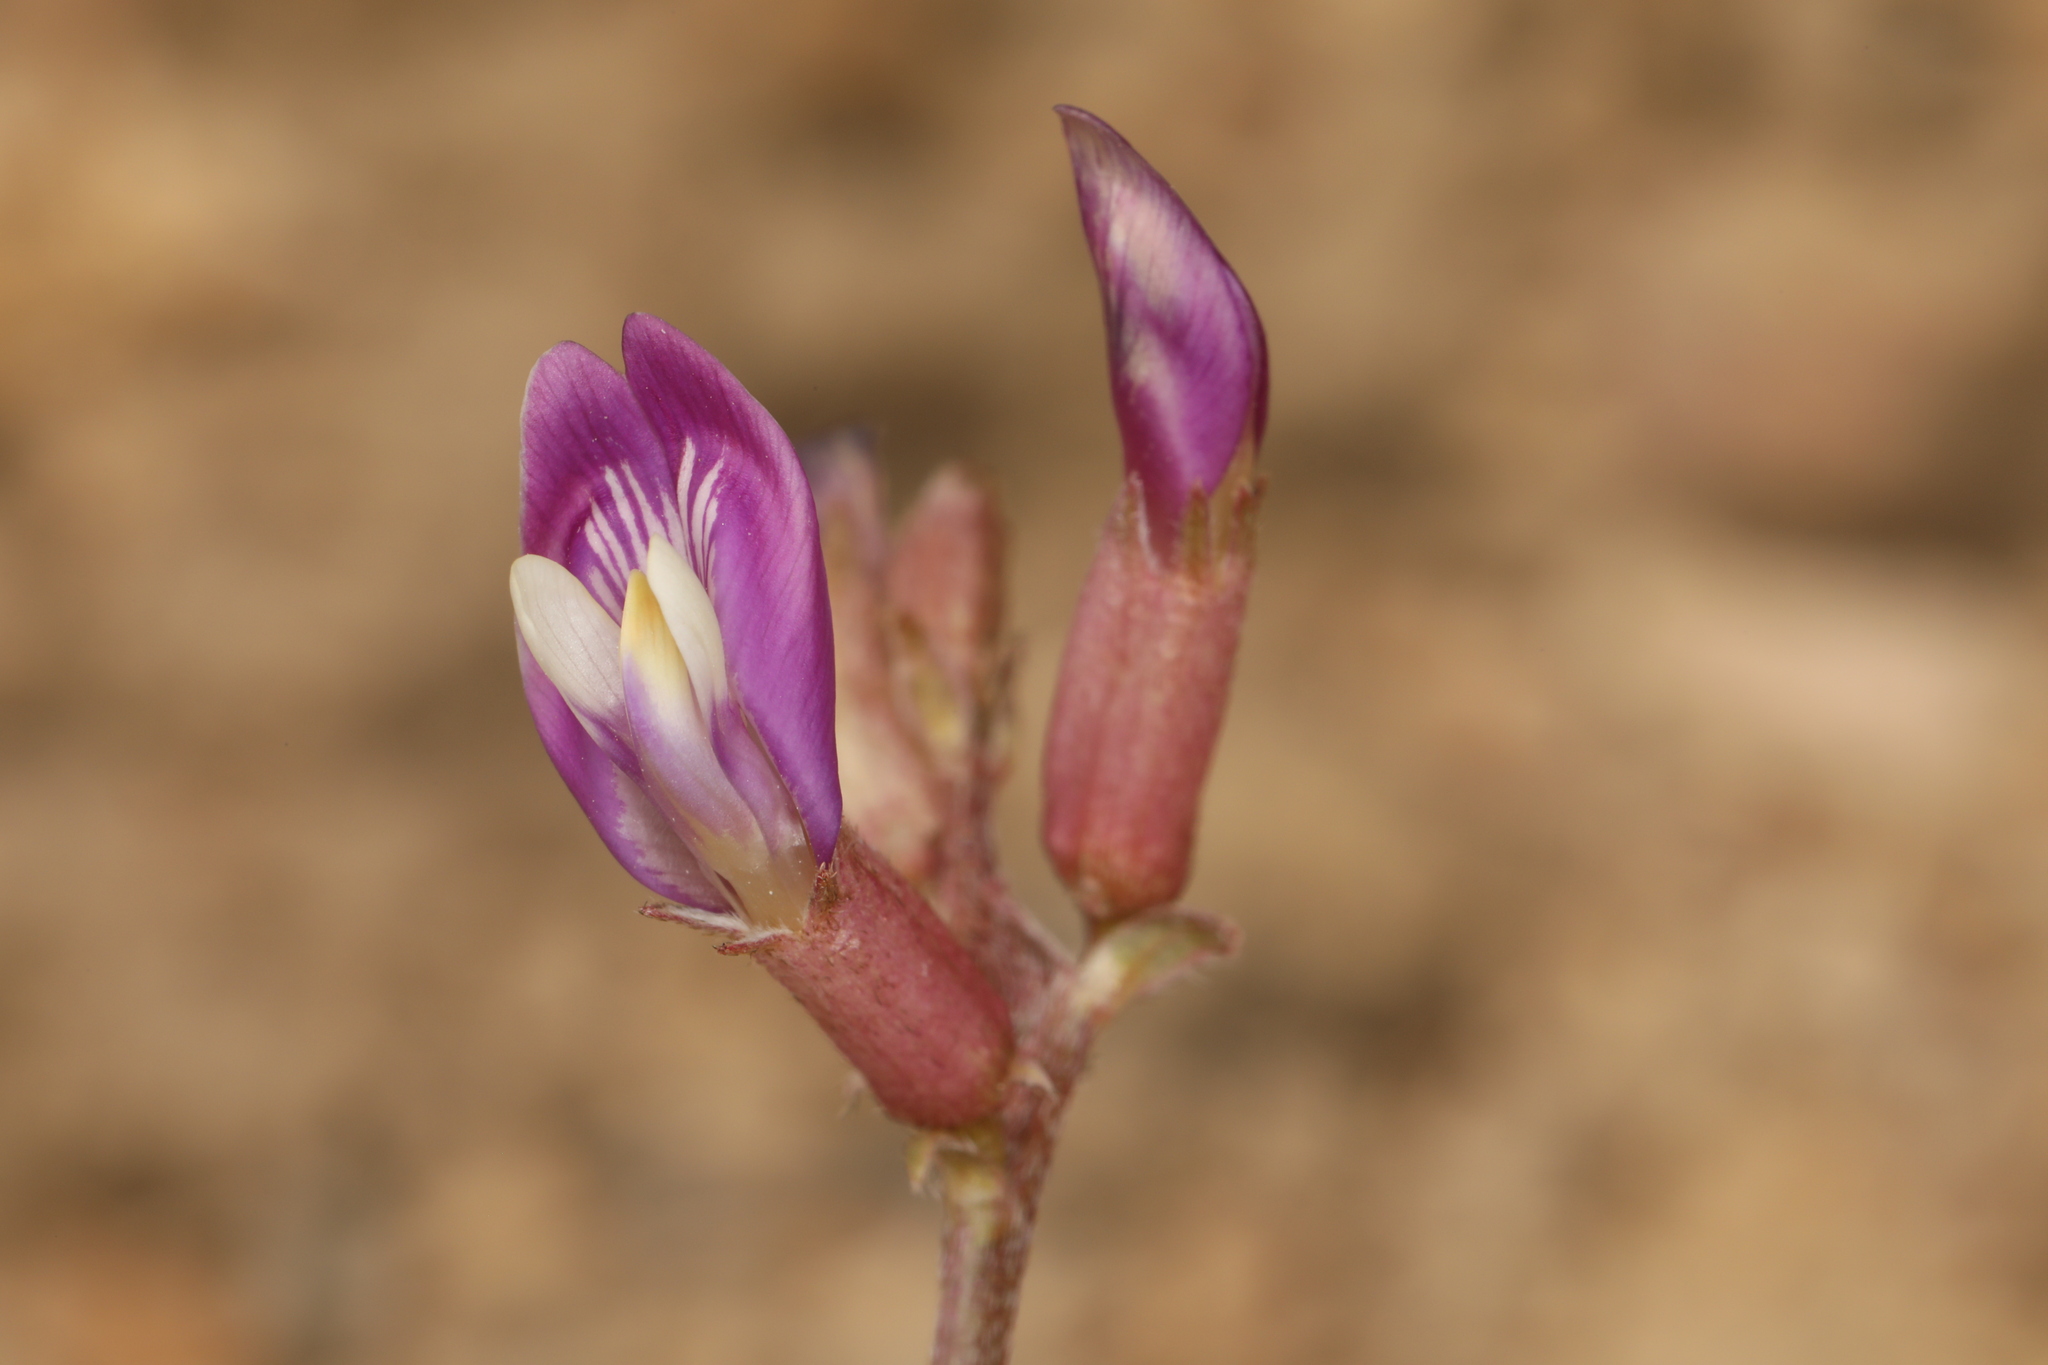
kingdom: Plantae
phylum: Tracheophyta
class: Magnoliopsida
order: Fabales
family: Fabaceae
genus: Astragalus
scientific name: Astragalus casei
